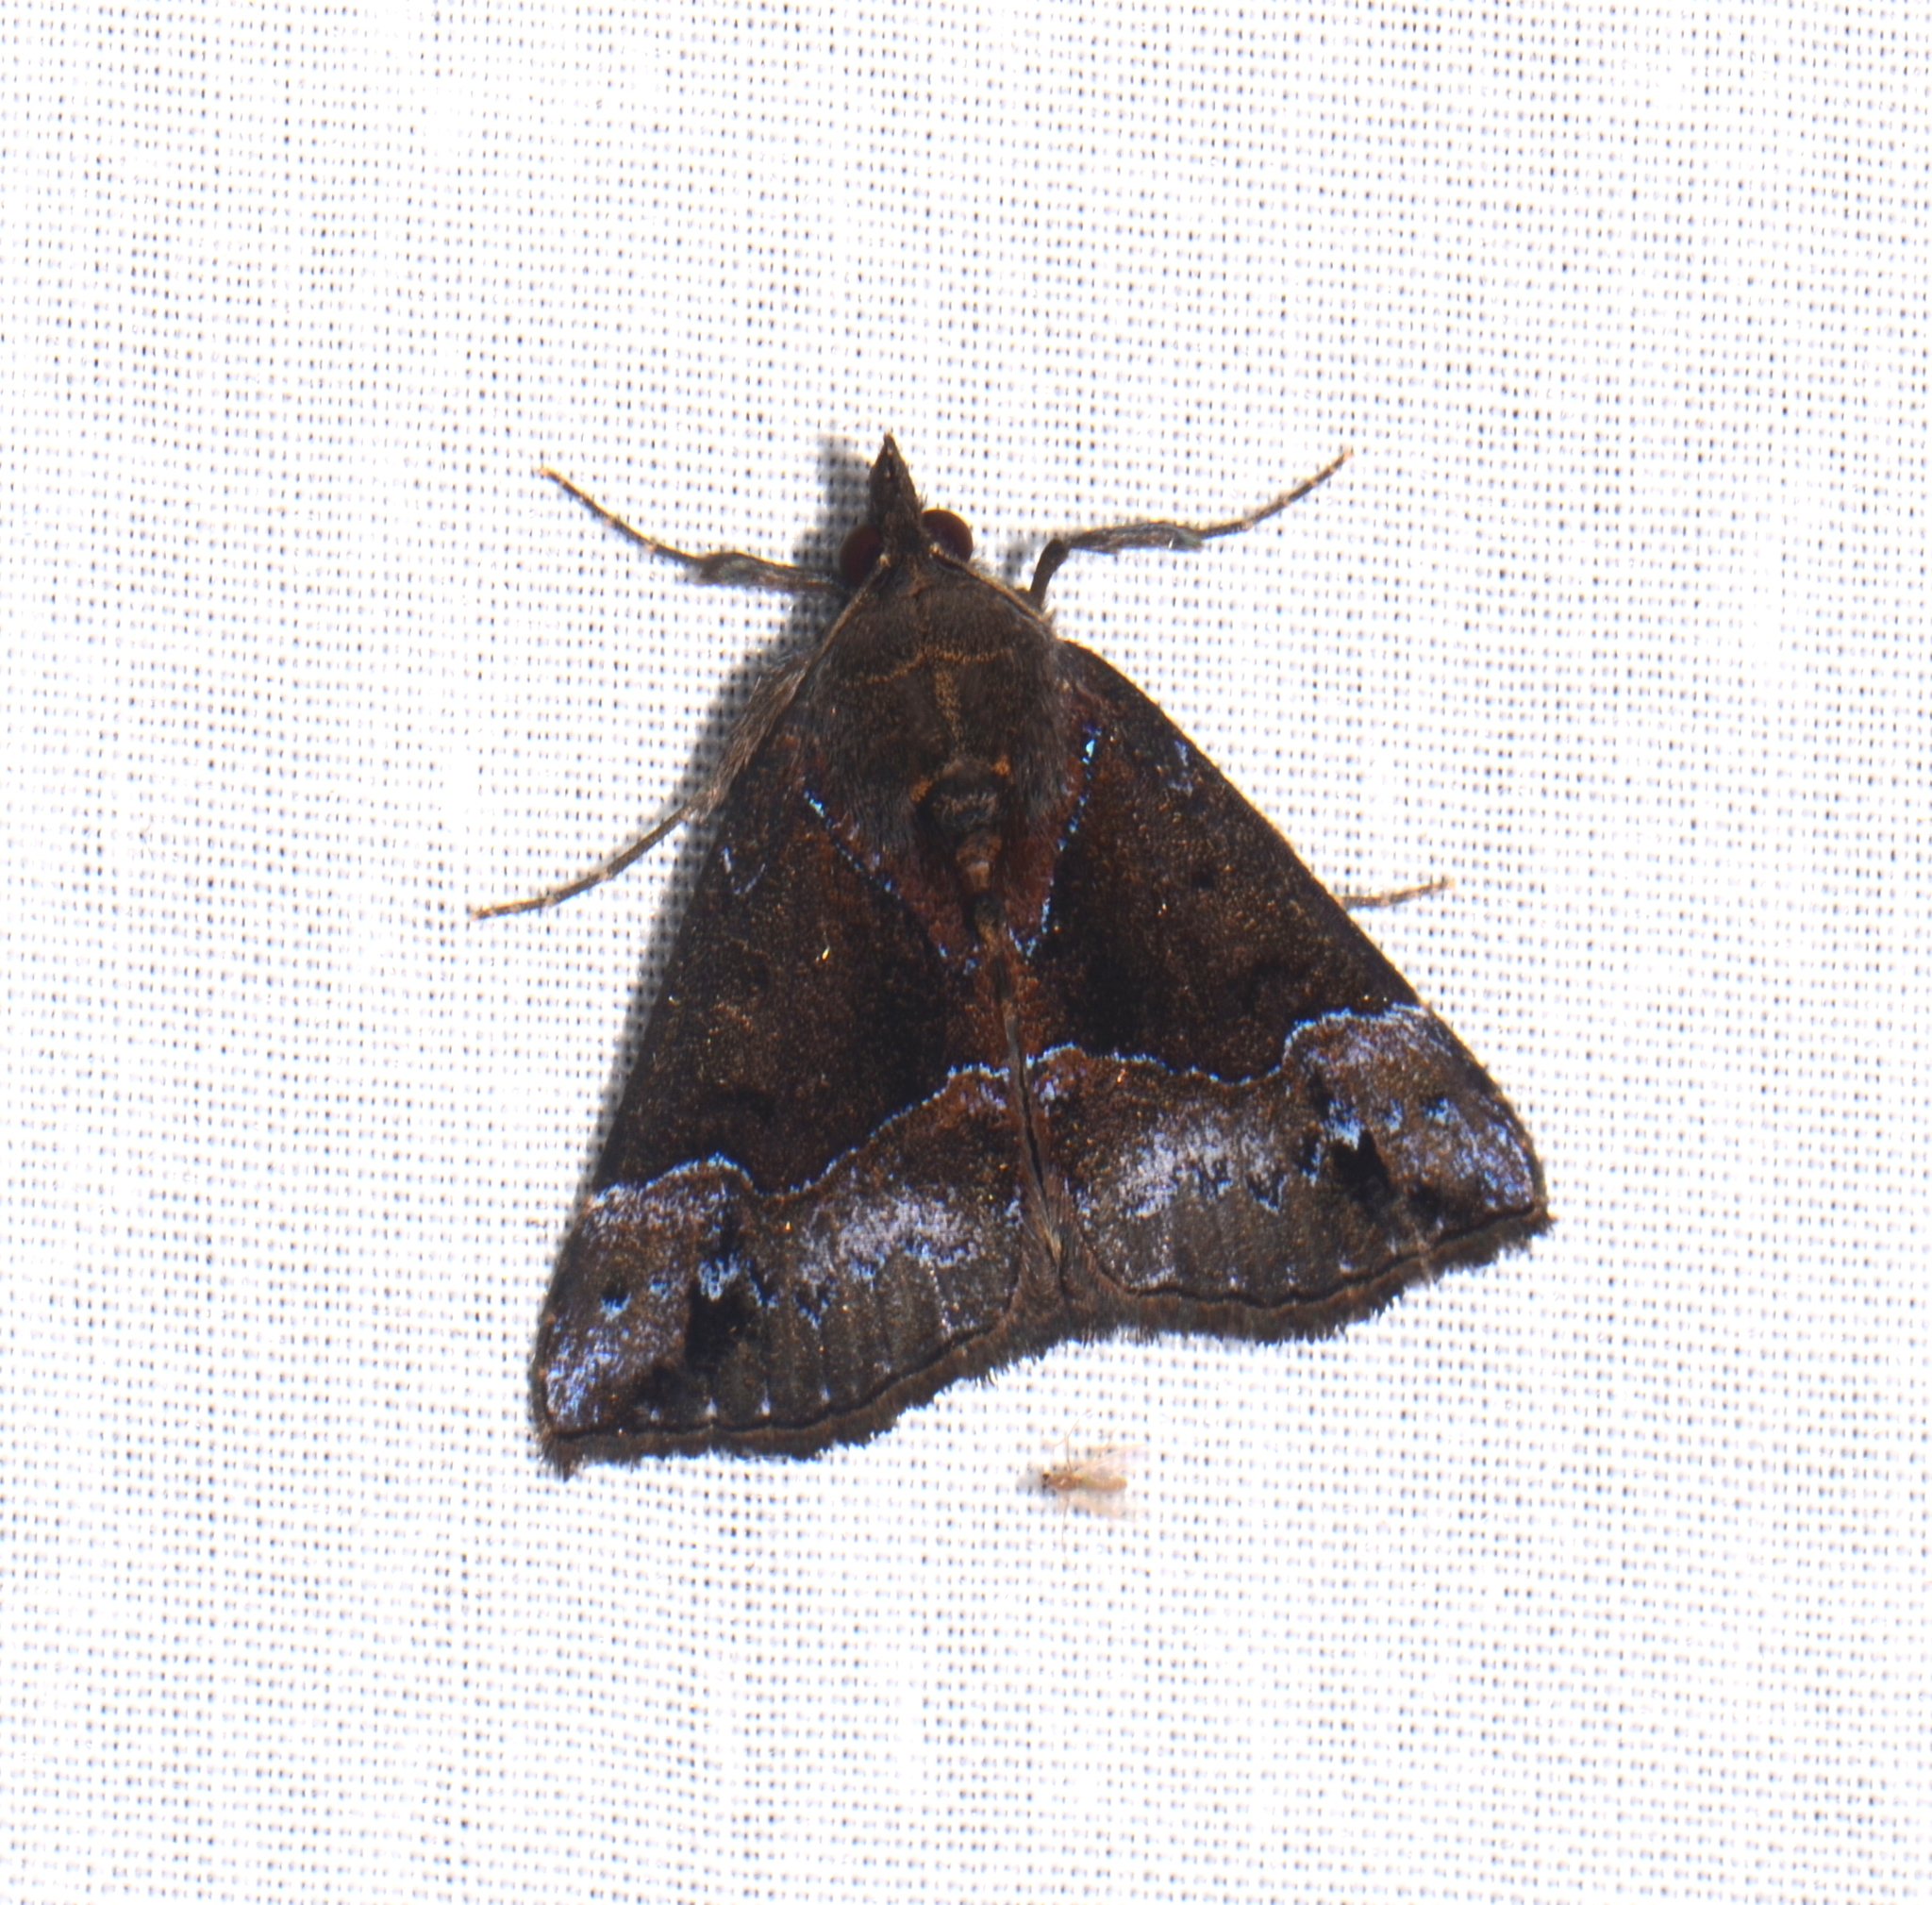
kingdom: Animalia
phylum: Arthropoda
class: Insecta
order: Lepidoptera
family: Erebidae
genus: Hypena
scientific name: Hypena caeruleanotata
